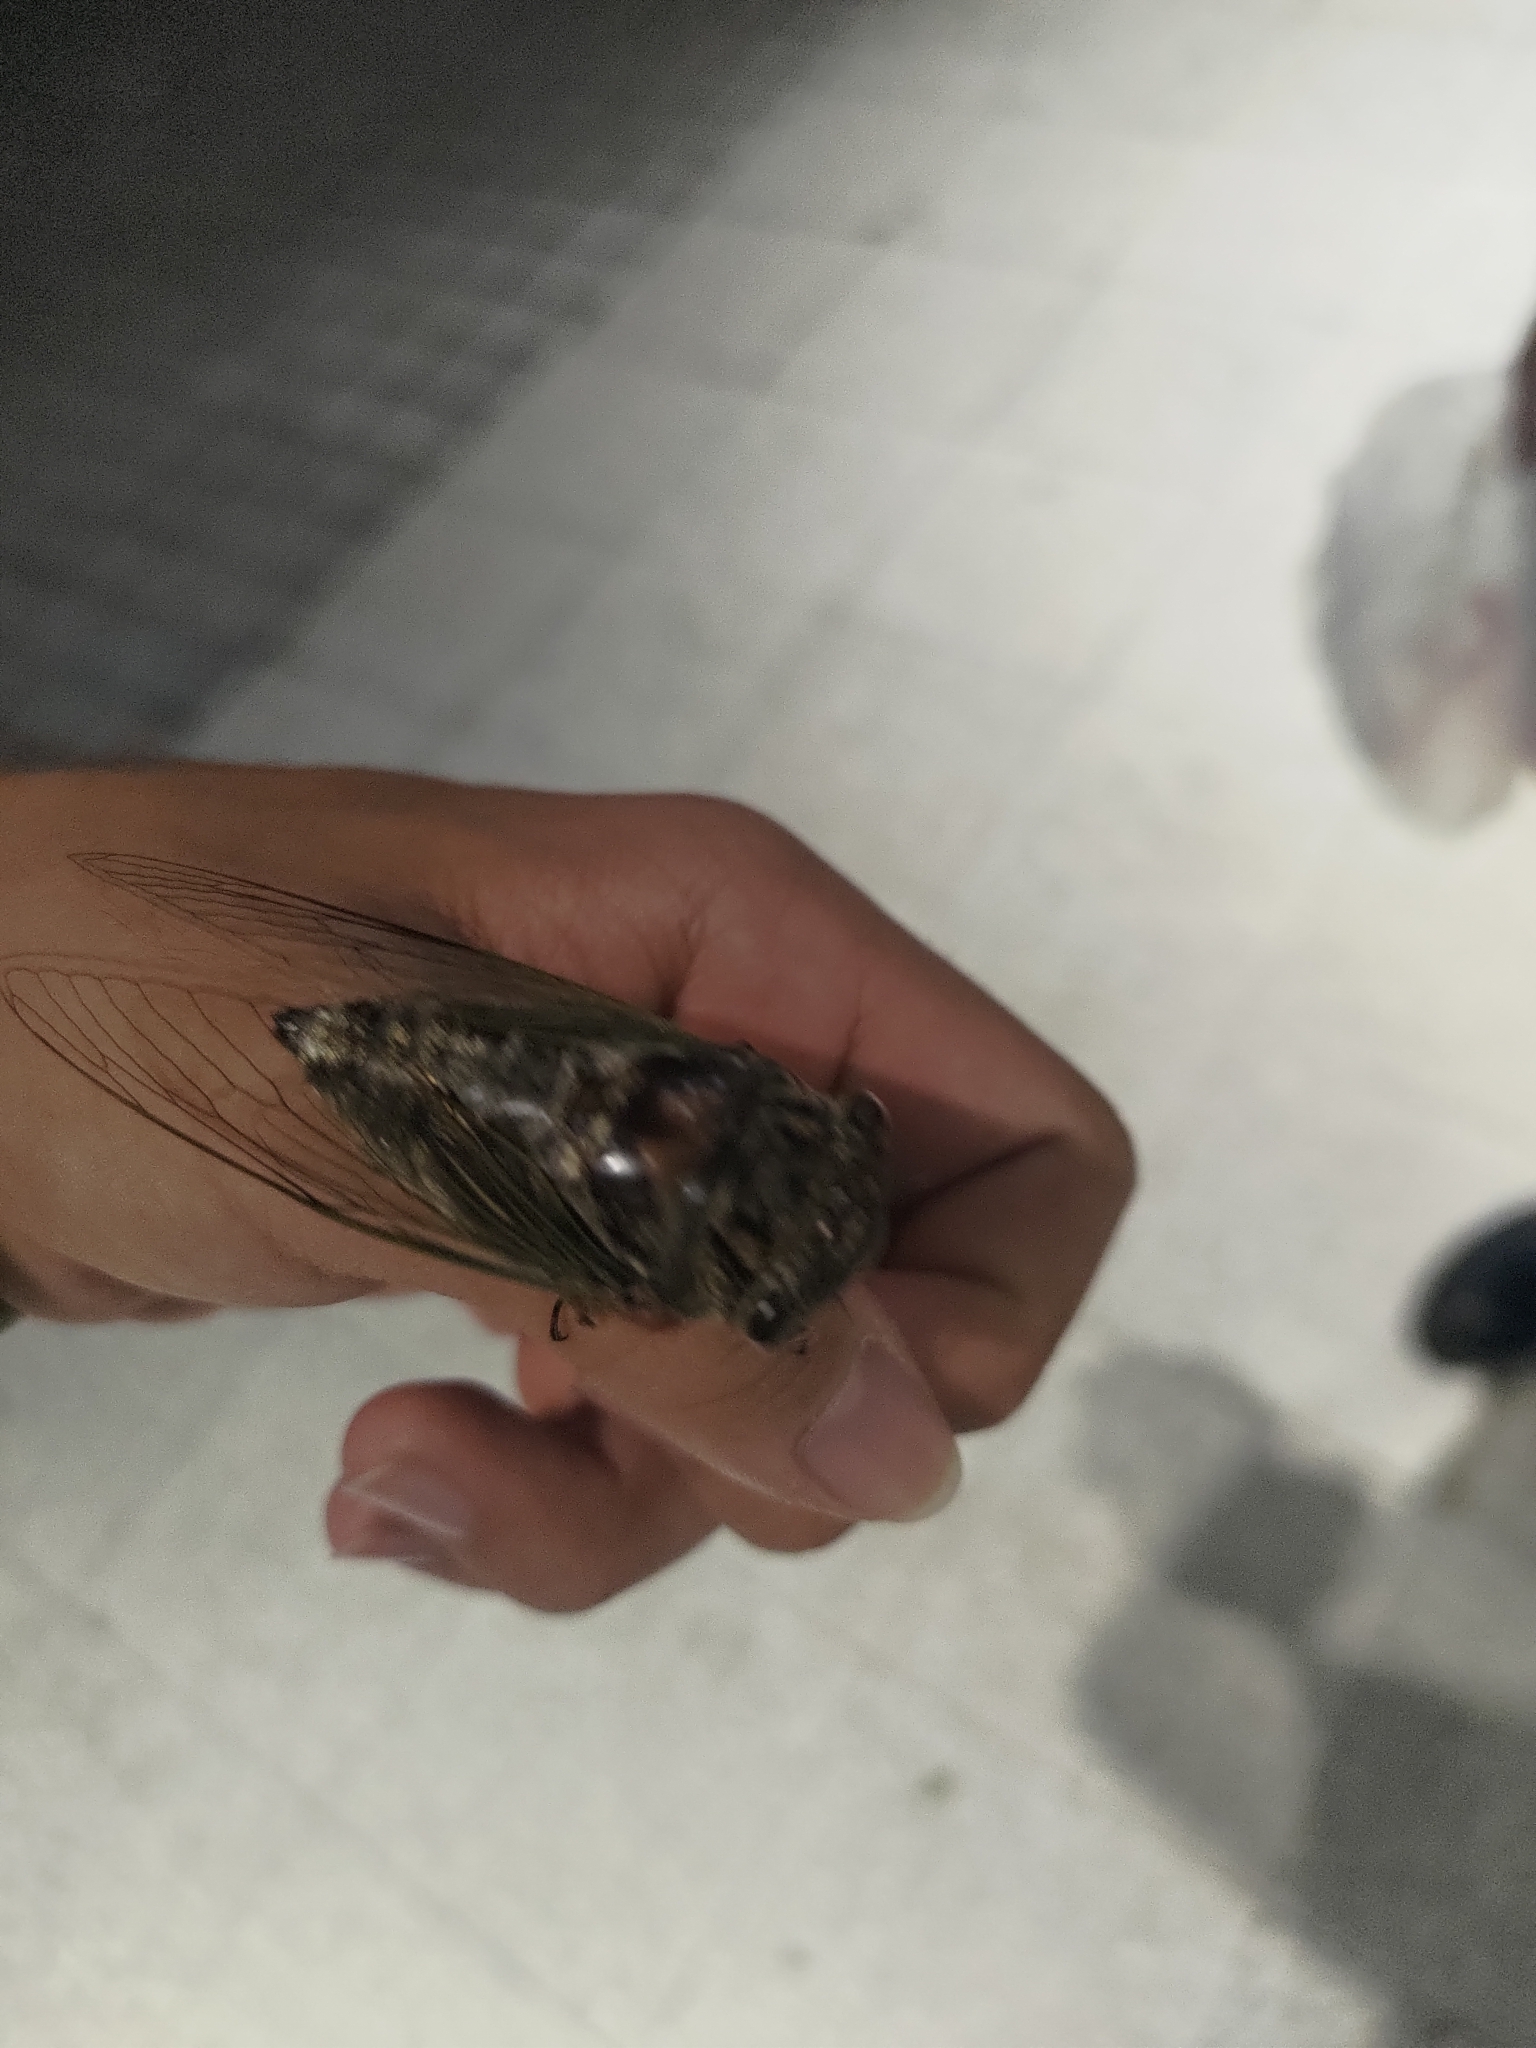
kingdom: Animalia
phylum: Arthropoda
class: Insecta
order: Hemiptera
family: Cicadidae
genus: Cryptotympana
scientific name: Cryptotympana takasagona
